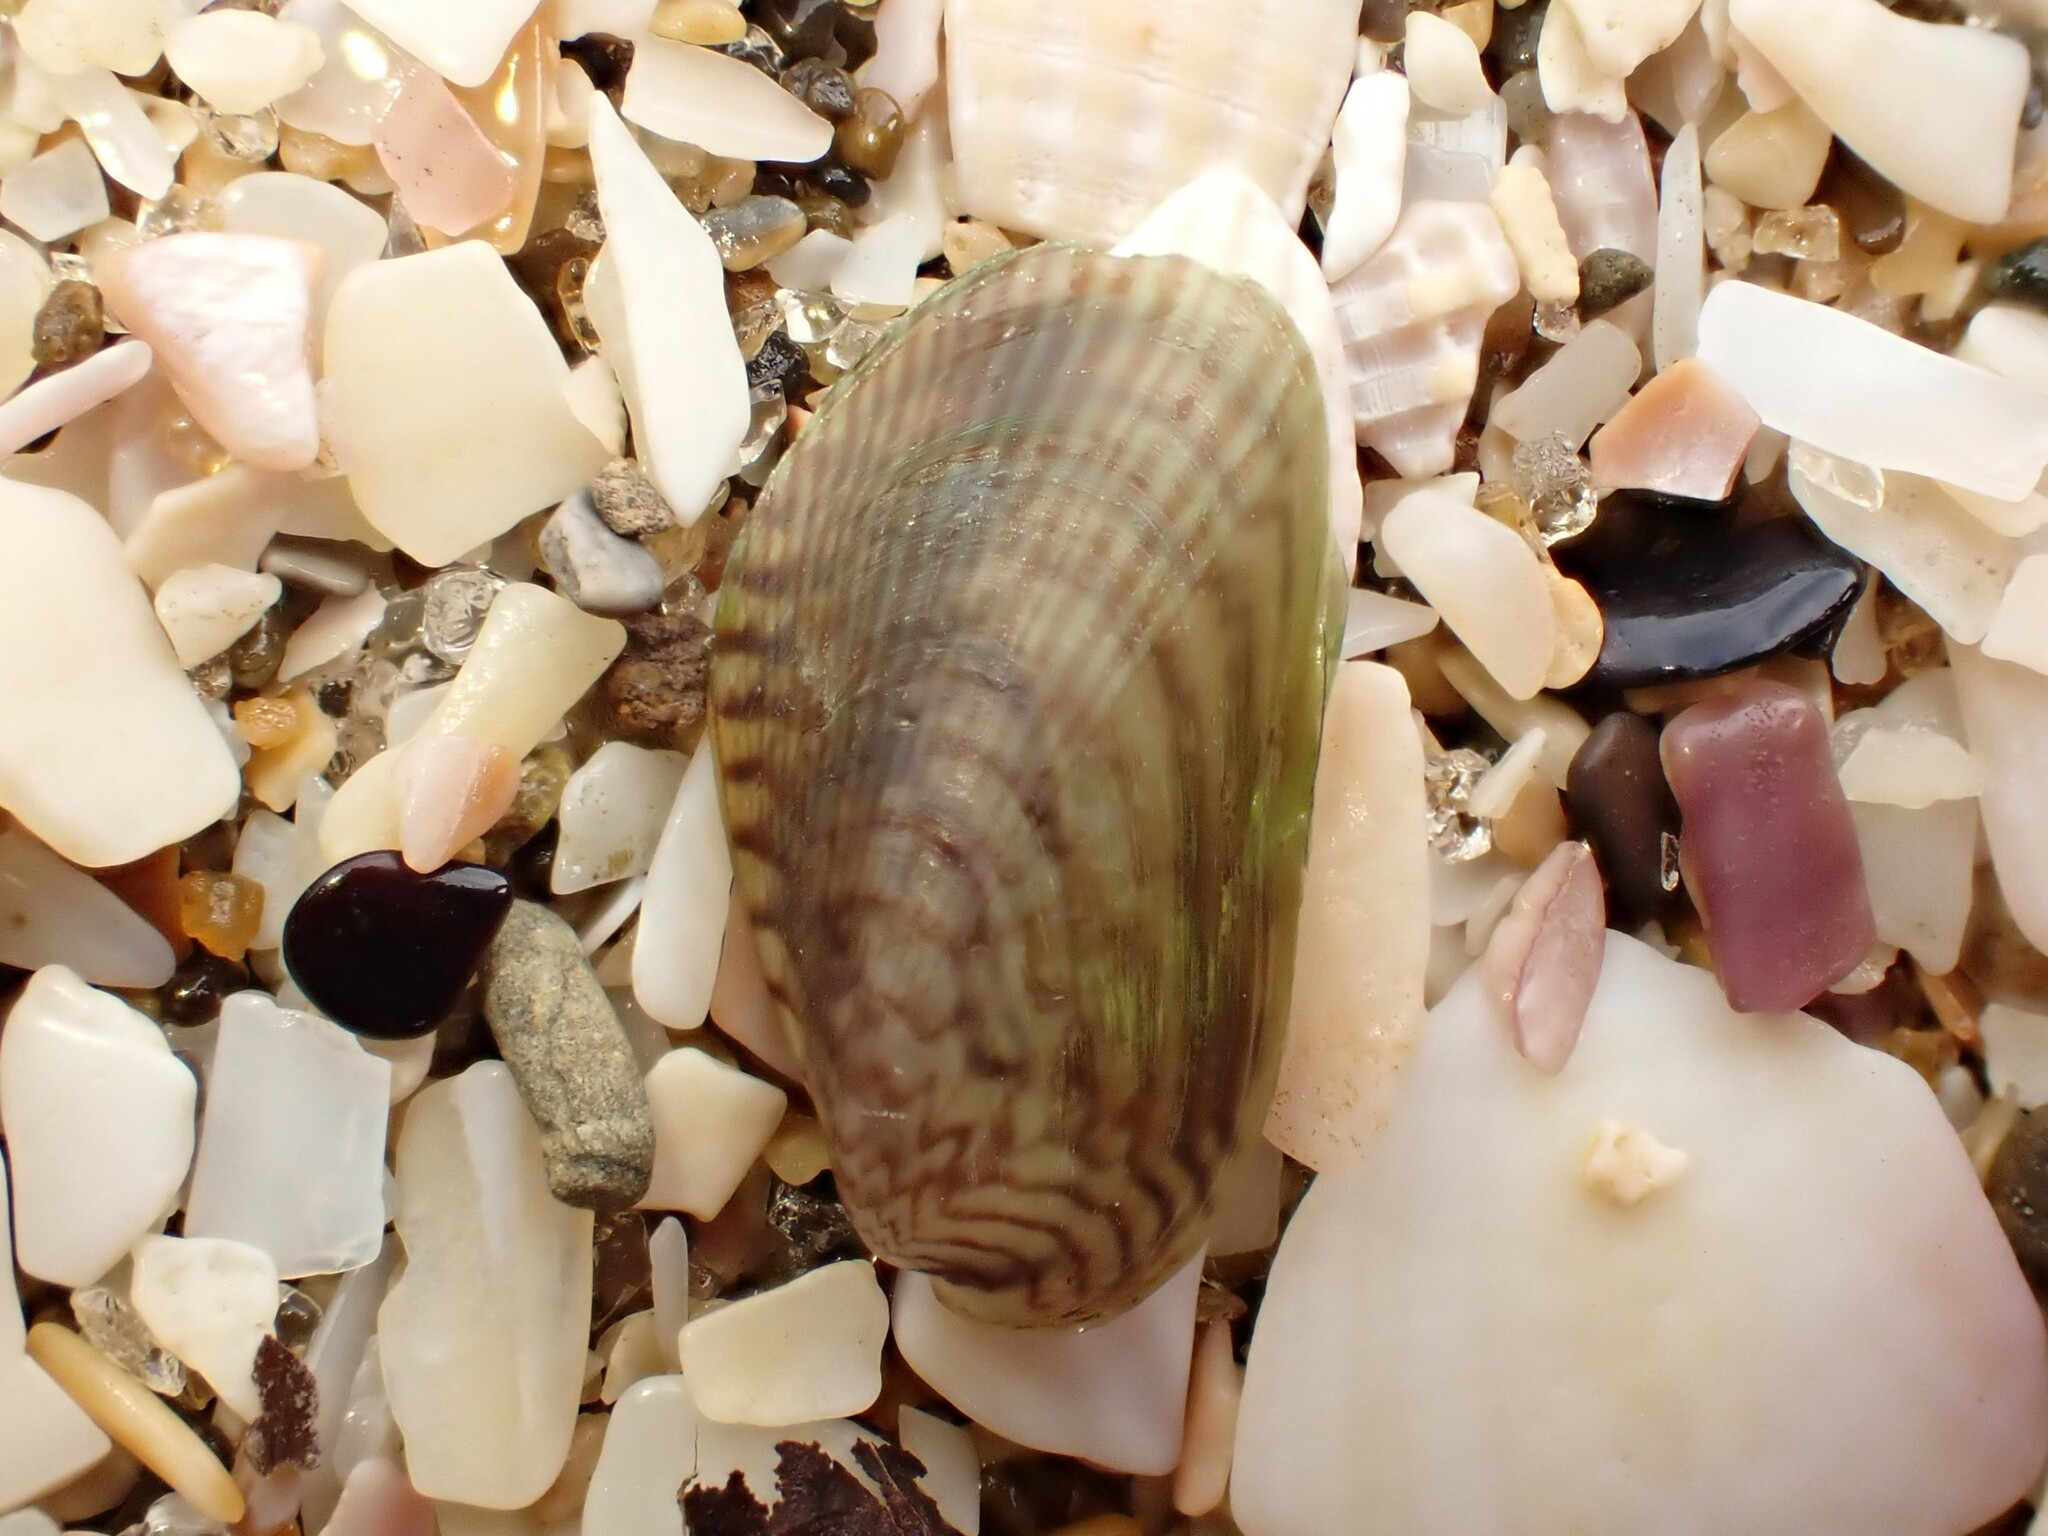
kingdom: Animalia
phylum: Mollusca
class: Bivalvia
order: Mytilida
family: Mytilidae
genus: Arcuatula
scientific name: Arcuatula senhousia
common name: Asian mussel
